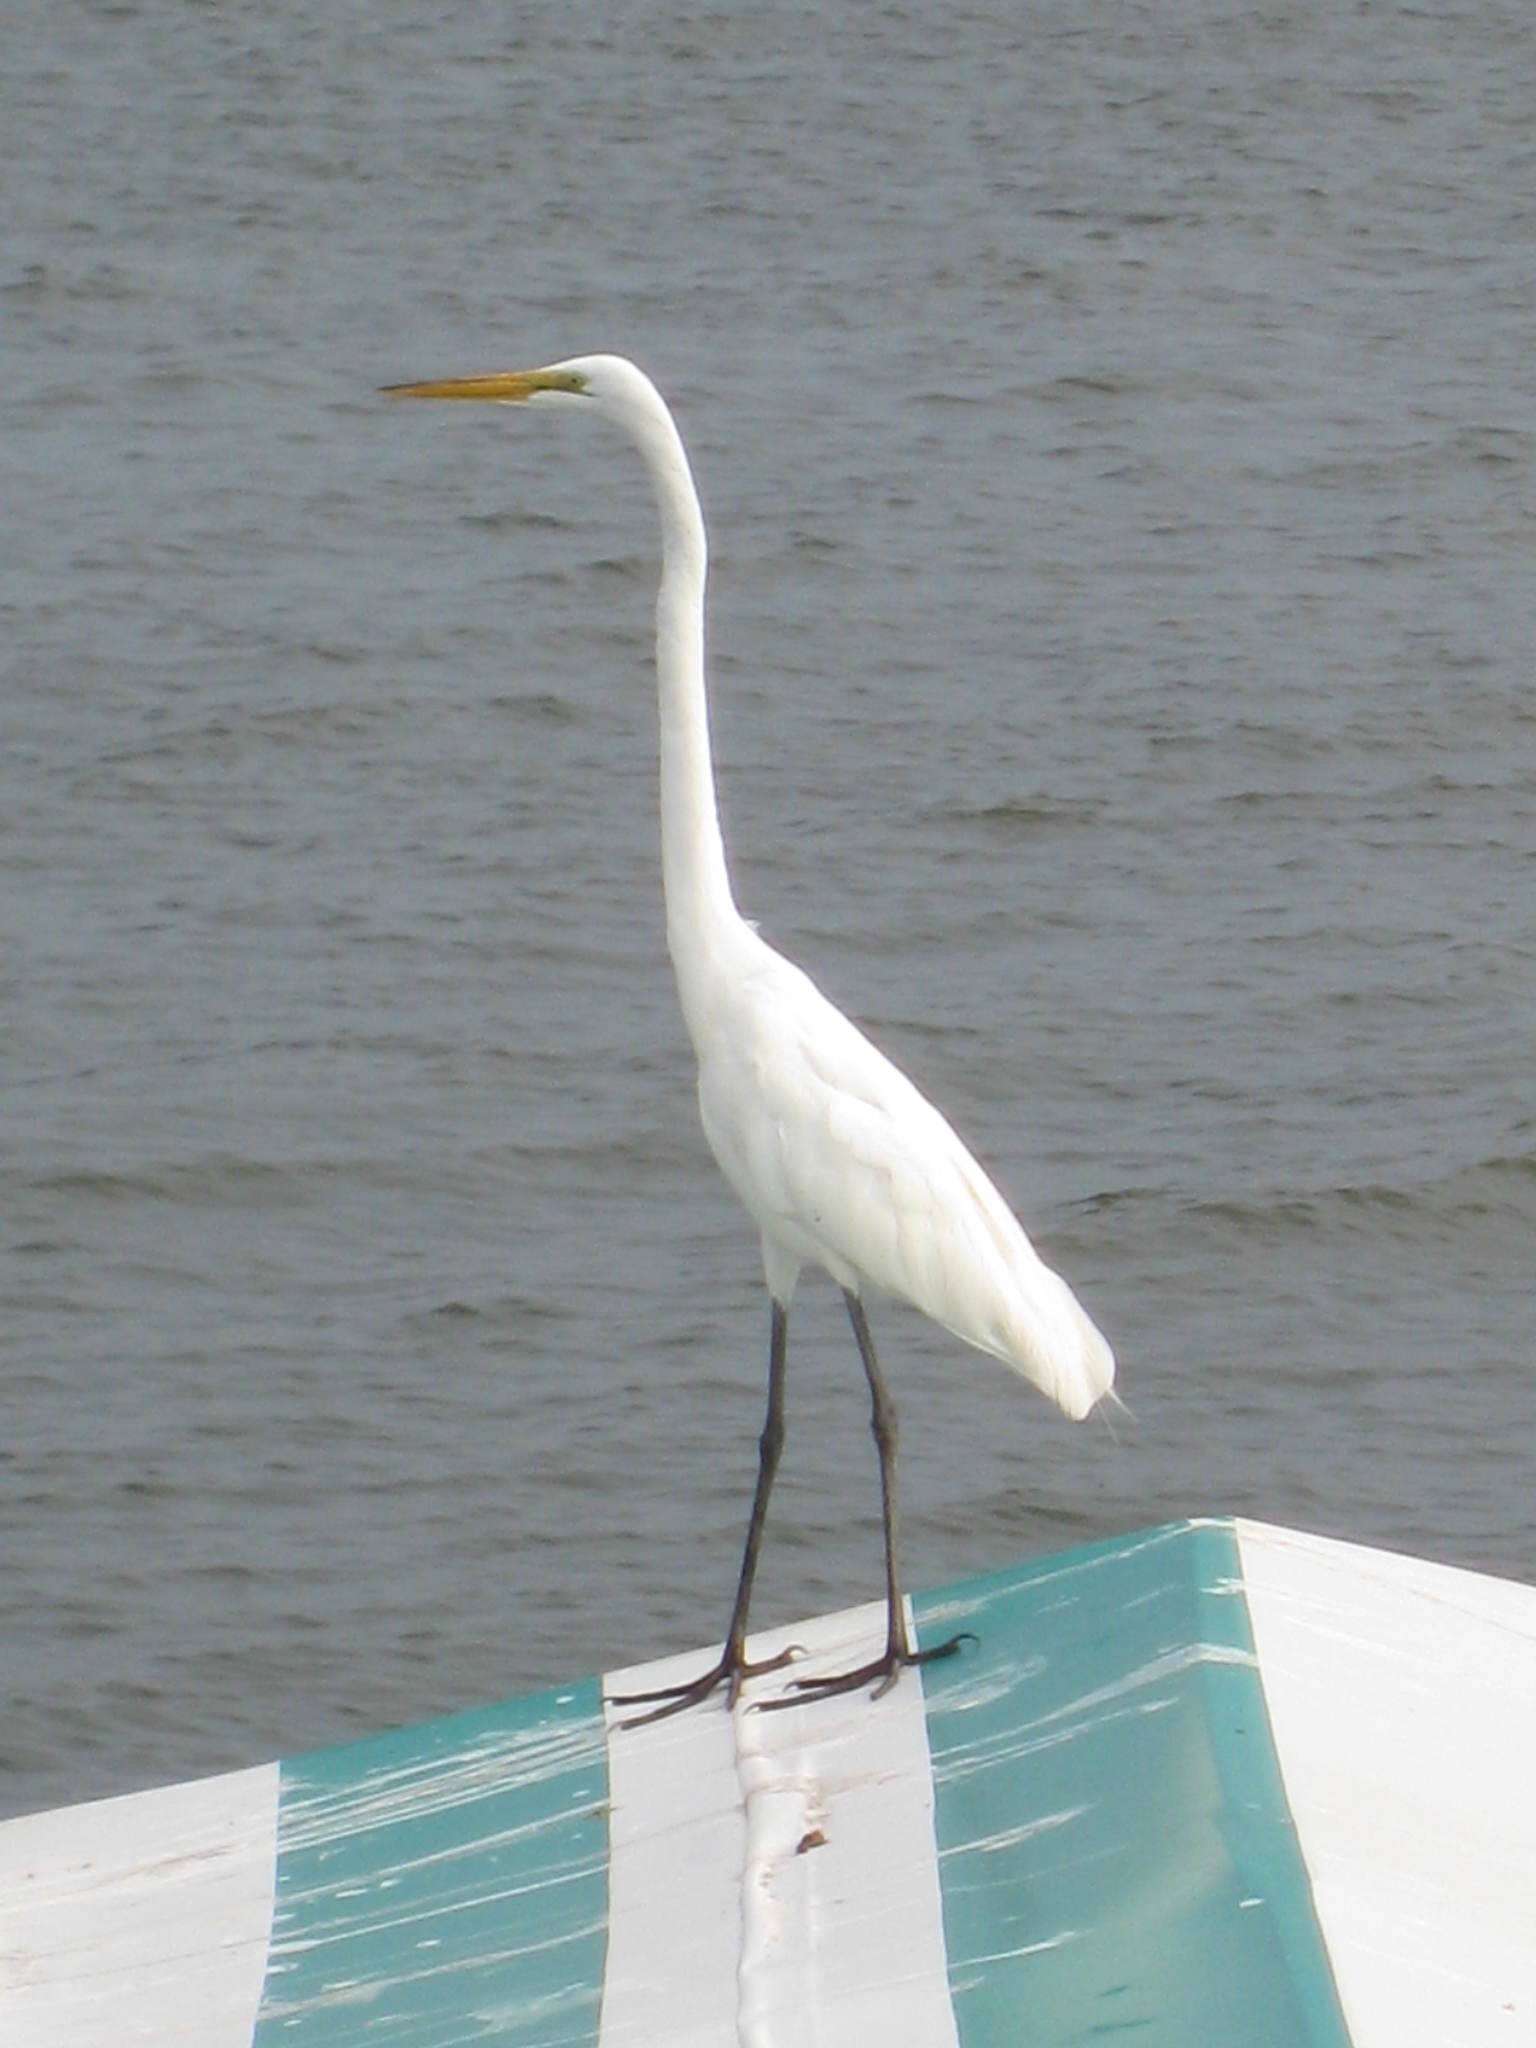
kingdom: Animalia
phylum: Chordata
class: Aves
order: Pelecaniformes
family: Ardeidae
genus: Ardea
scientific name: Ardea alba
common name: Great egret
